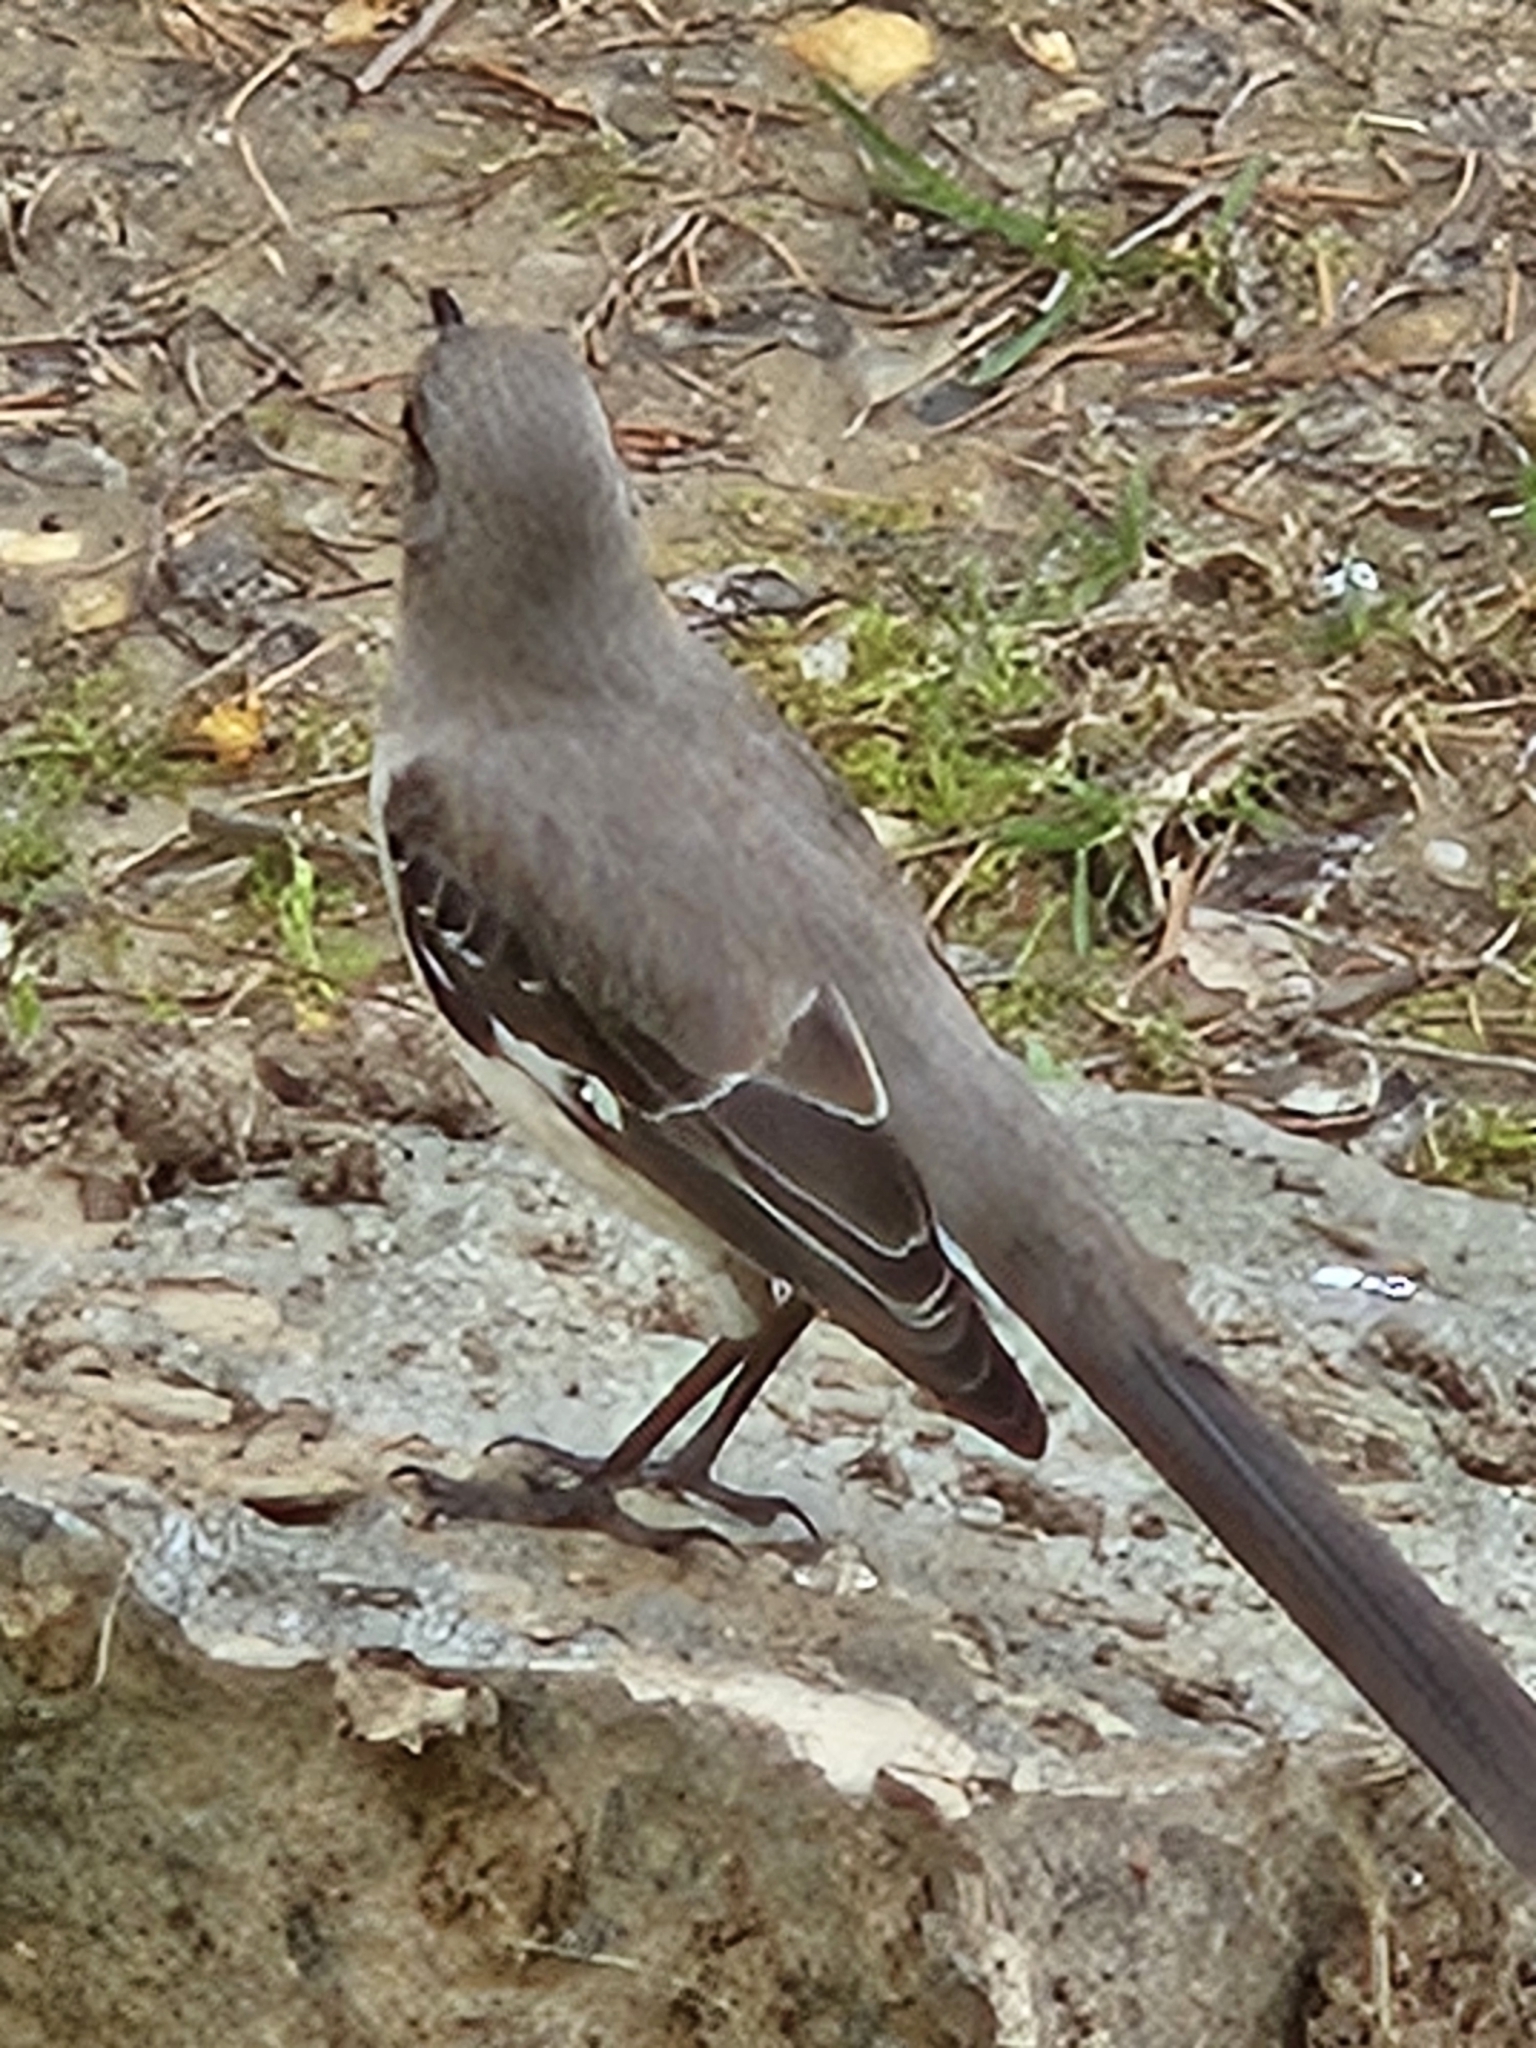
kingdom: Animalia
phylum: Chordata
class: Aves
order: Passeriformes
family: Mimidae
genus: Mimus
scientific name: Mimus polyglottos
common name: Northern mockingbird
